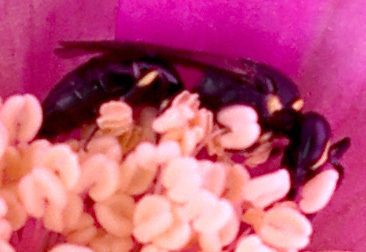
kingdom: Animalia
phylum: Arthropoda
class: Insecta
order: Hymenoptera
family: Colletidae
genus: Hylaeus
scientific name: Hylaeus modestus
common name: Yellow-faced bee
